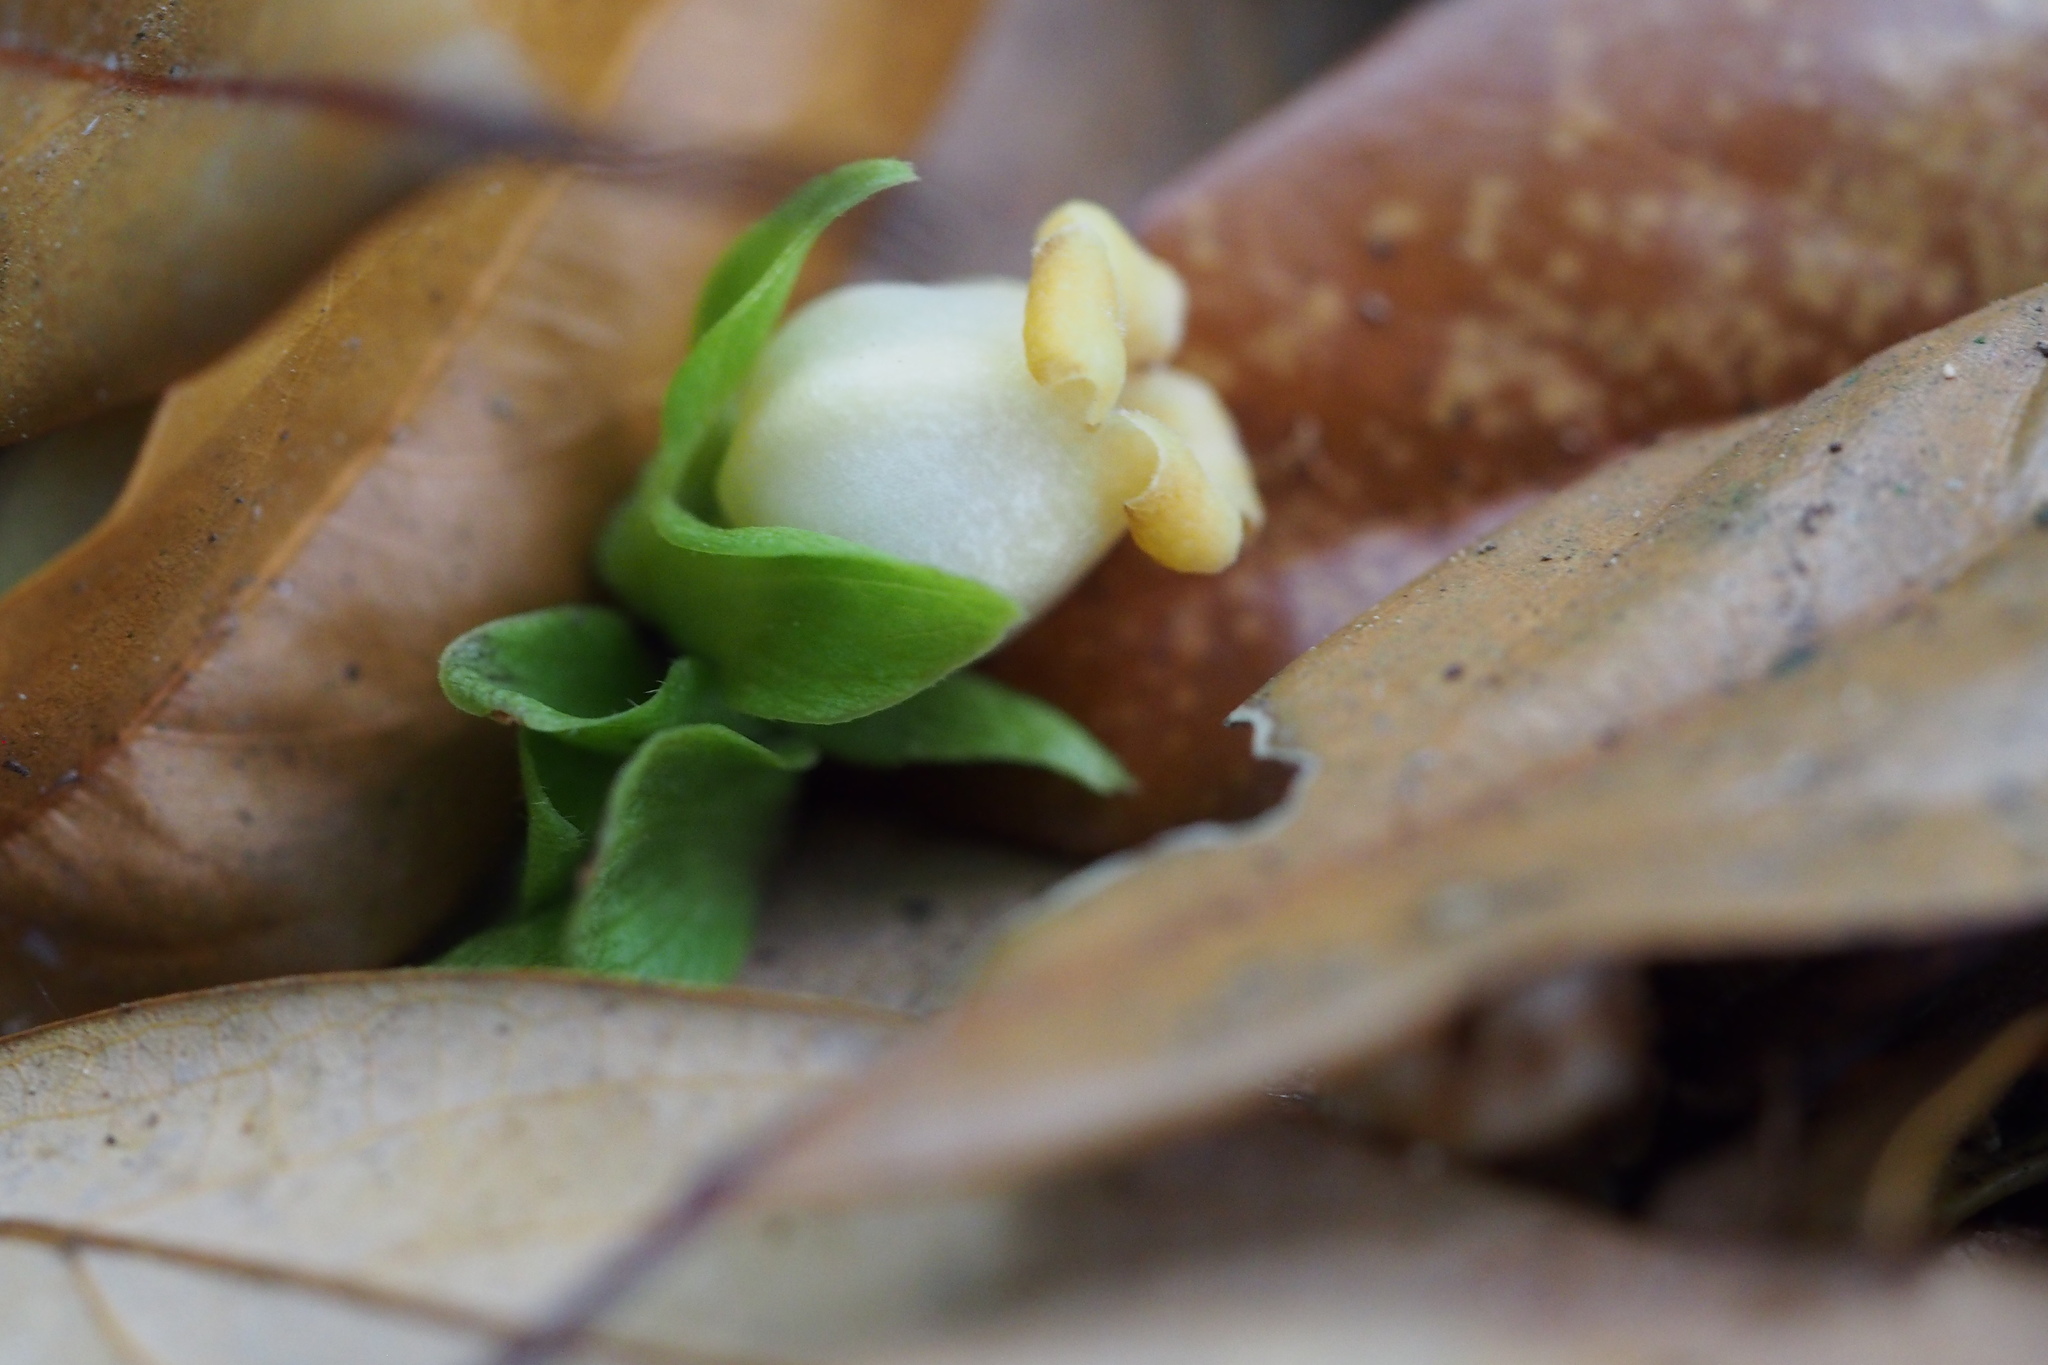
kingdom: Plantae
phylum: Tracheophyta
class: Magnoliopsida
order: Ericales
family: Ebenaceae
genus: Diospyros
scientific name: Diospyros kaki
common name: Persimmon
